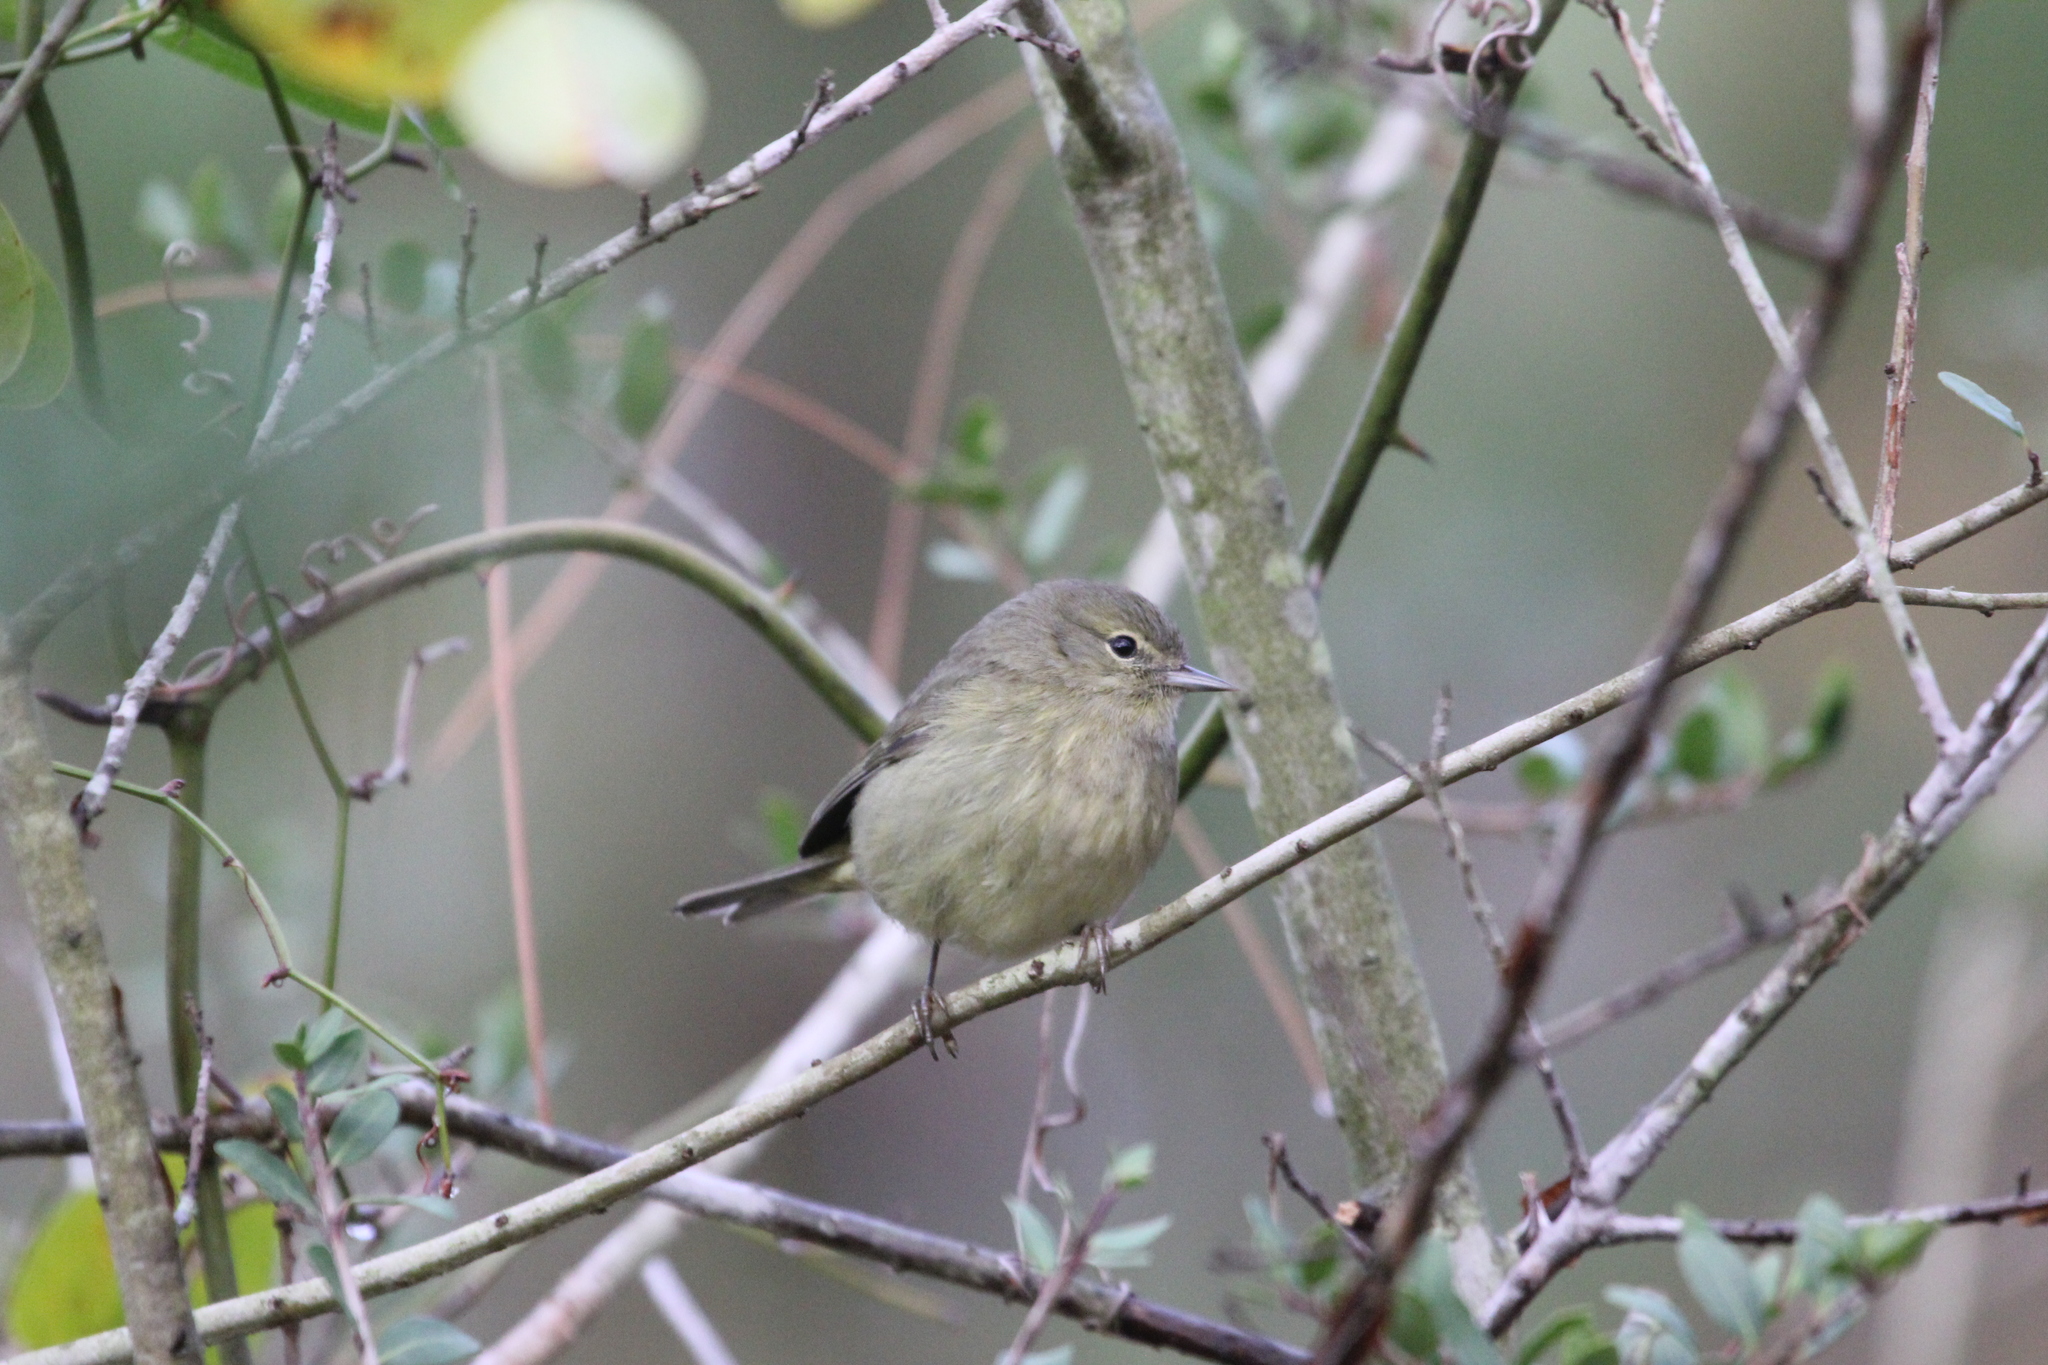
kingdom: Animalia
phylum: Chordata
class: Aves
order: Passeriformes
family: Parulidae
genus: Leiothlypis
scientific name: Leiothlypis celata
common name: Orange-crowned warbler
